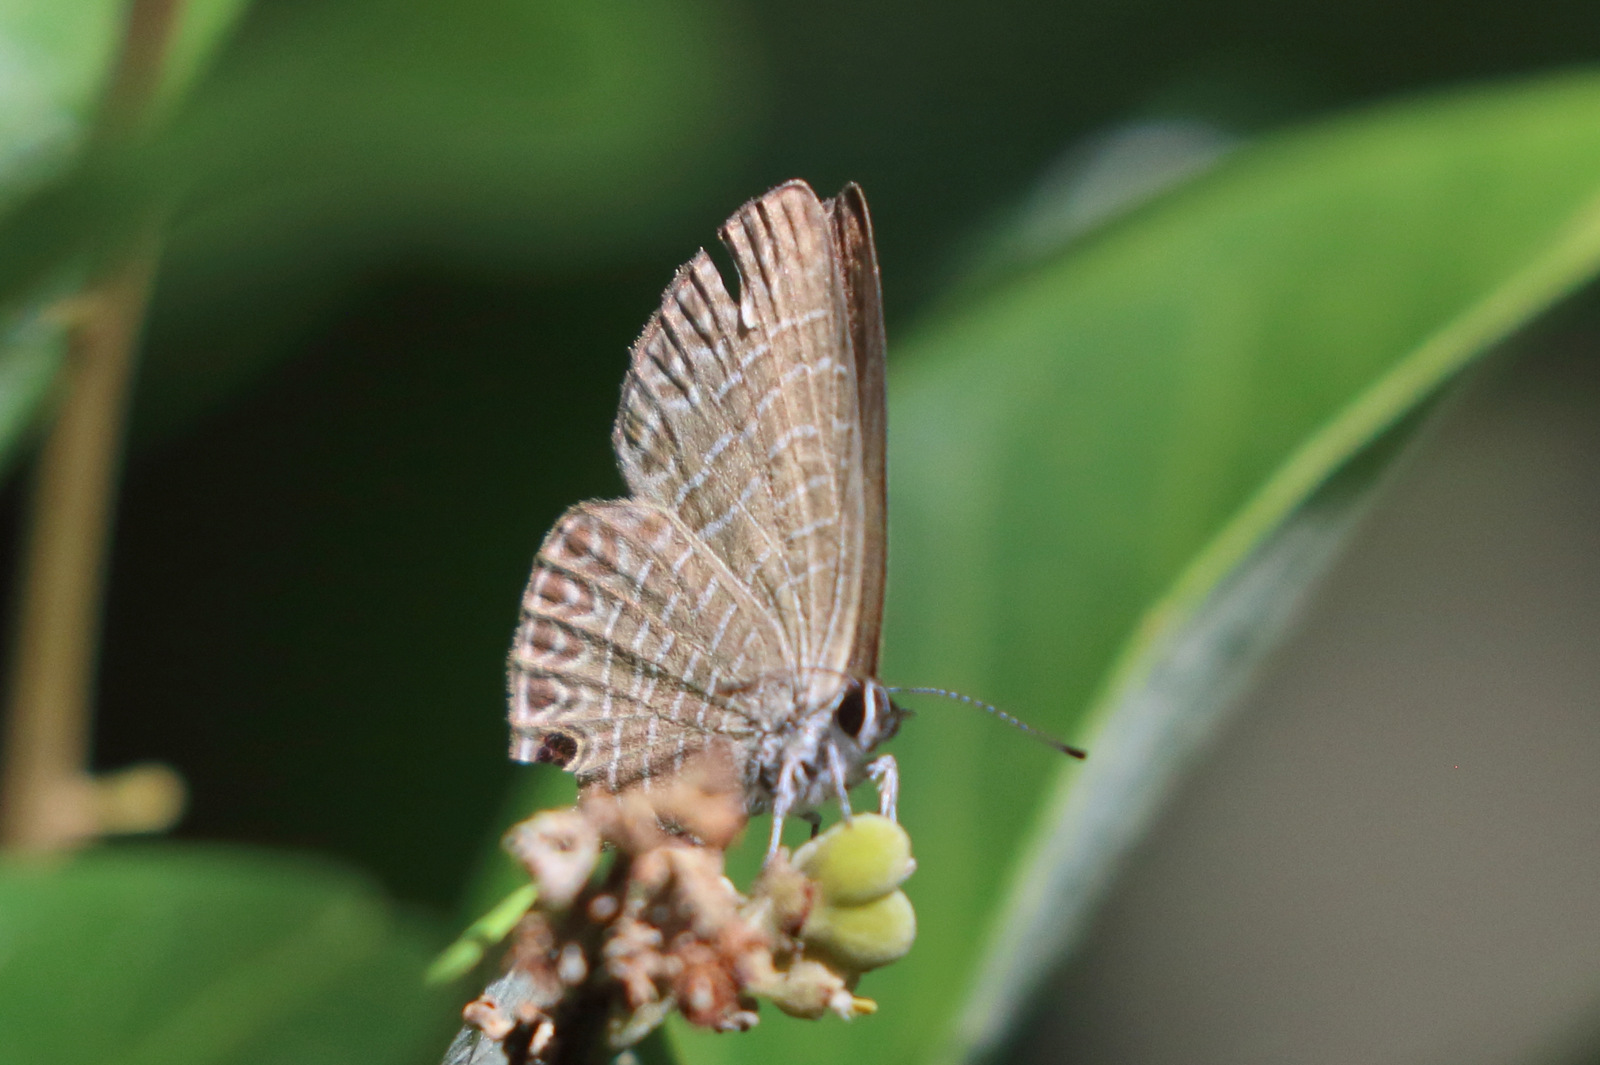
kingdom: Animalia
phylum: Arthropoda
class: Insecta
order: Lepidoptera
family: Lycaenidae
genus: Nacaduba
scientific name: Nacaduba berenice
